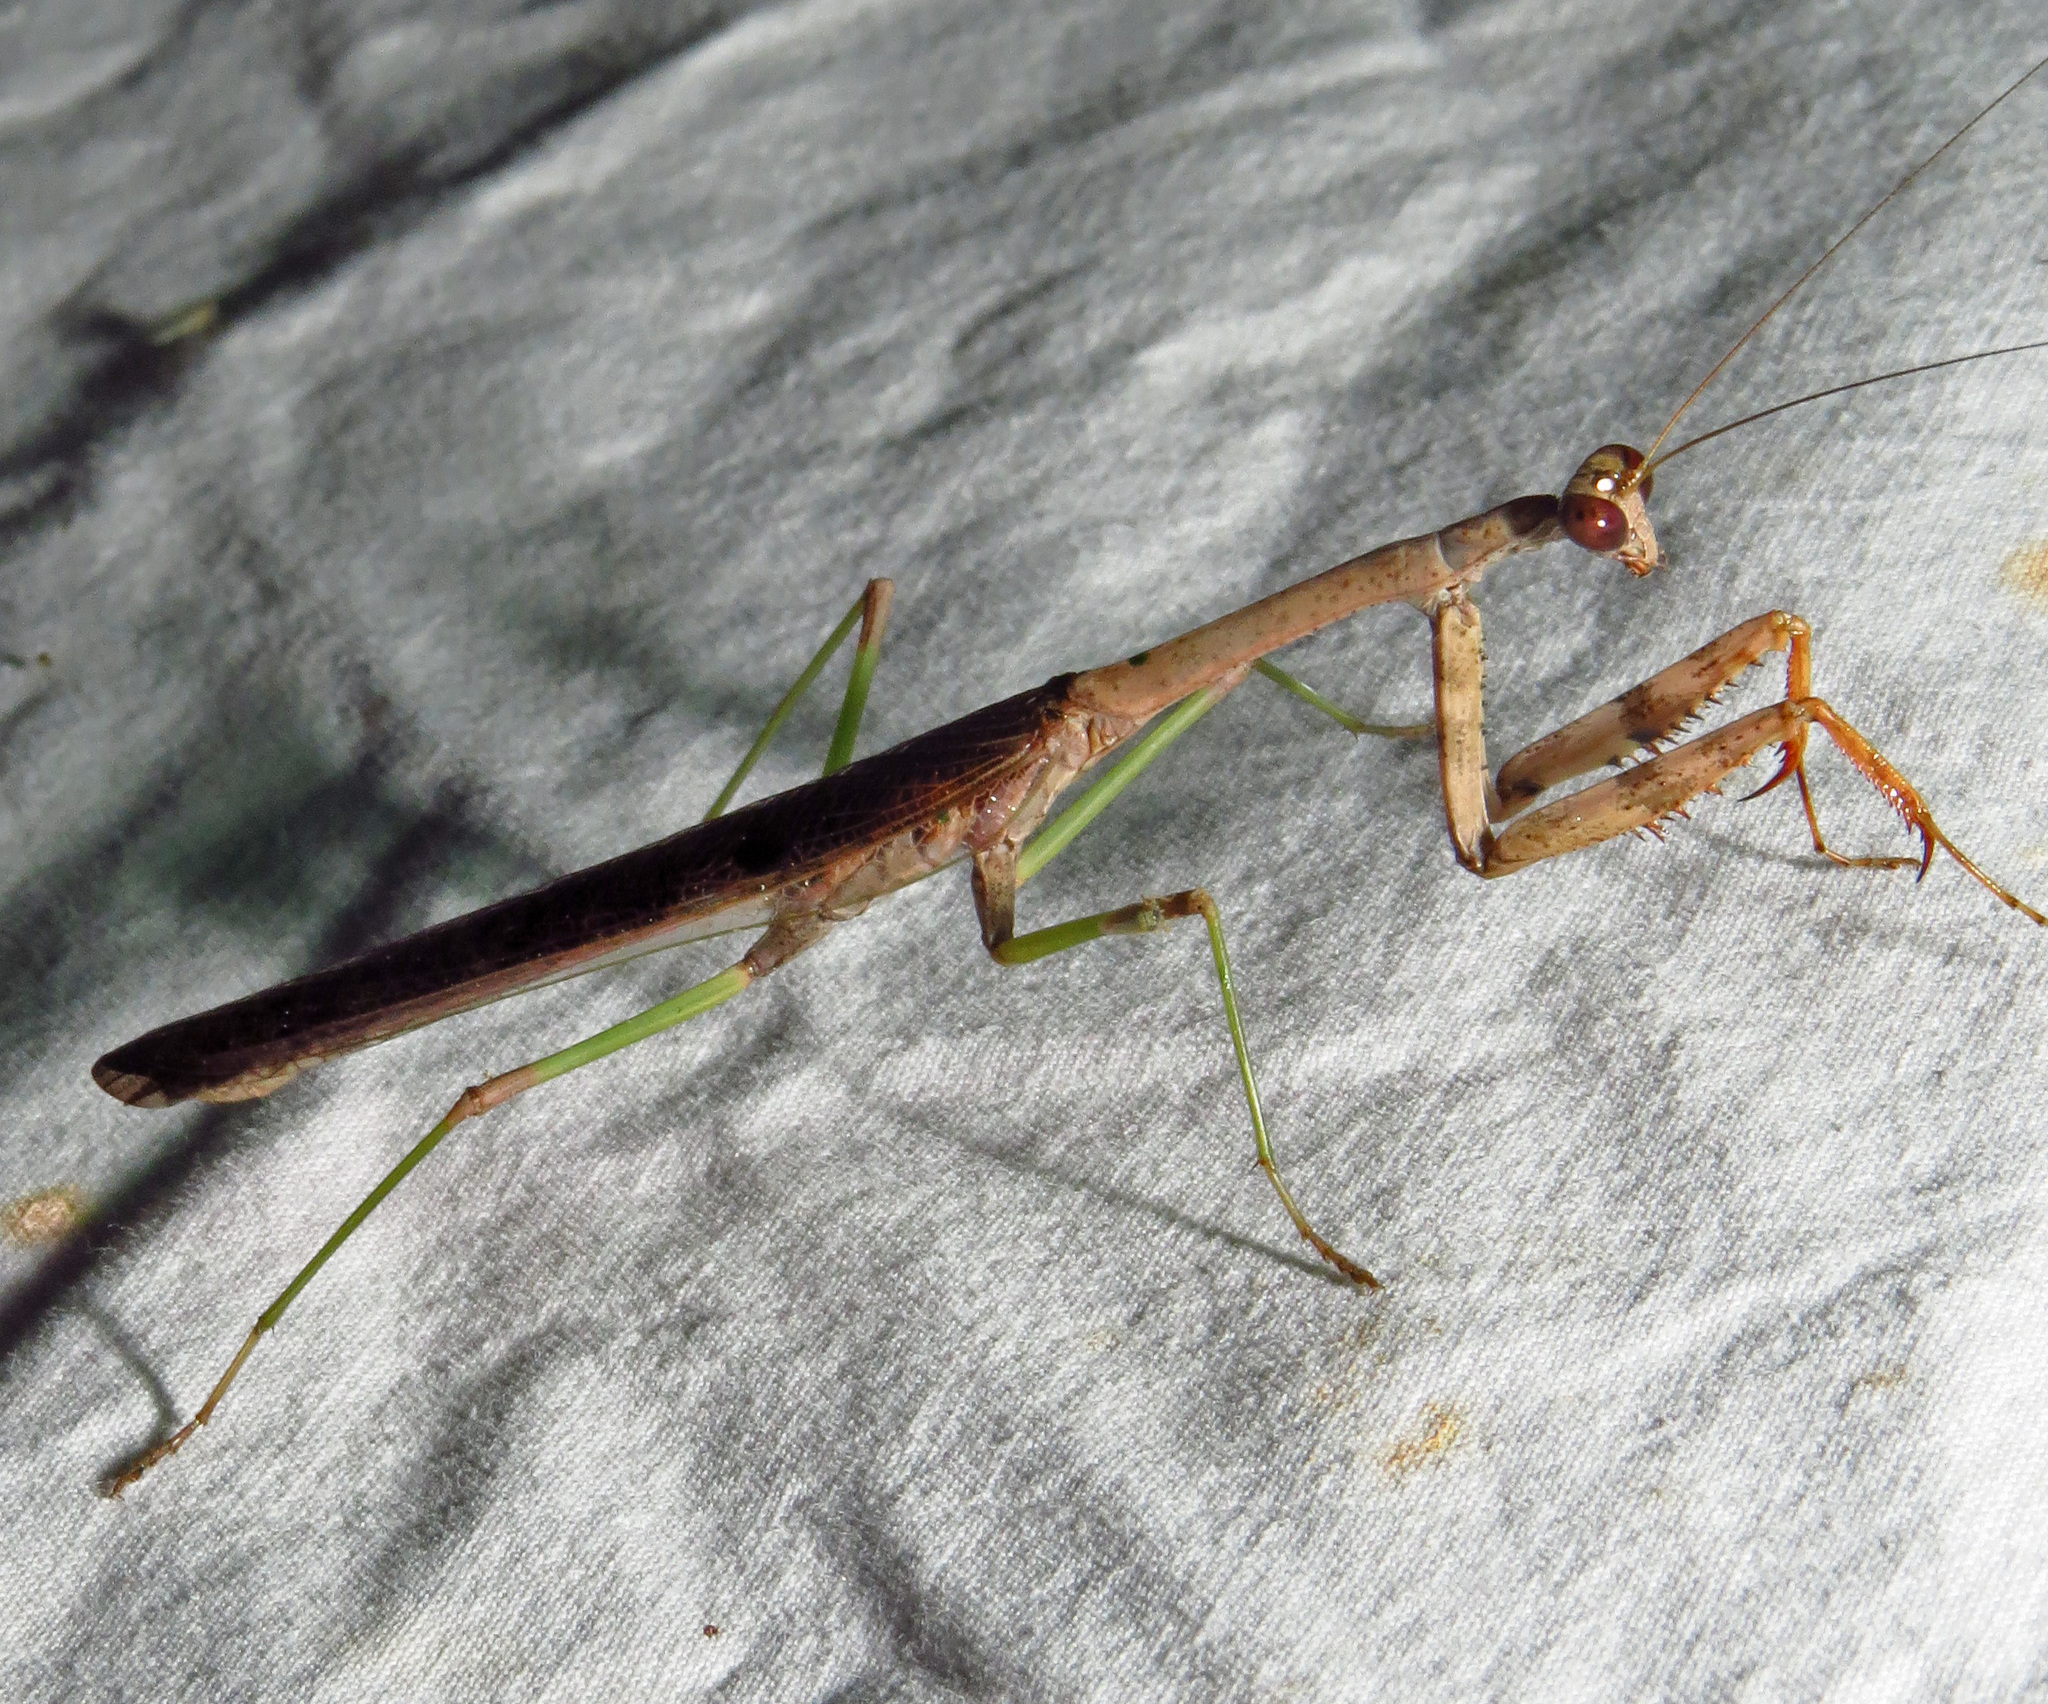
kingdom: Animalia
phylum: Arthropoda
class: Insecta
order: Mantodea
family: Mantidae
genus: Stagmomantis
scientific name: Stagmomantis carolina
